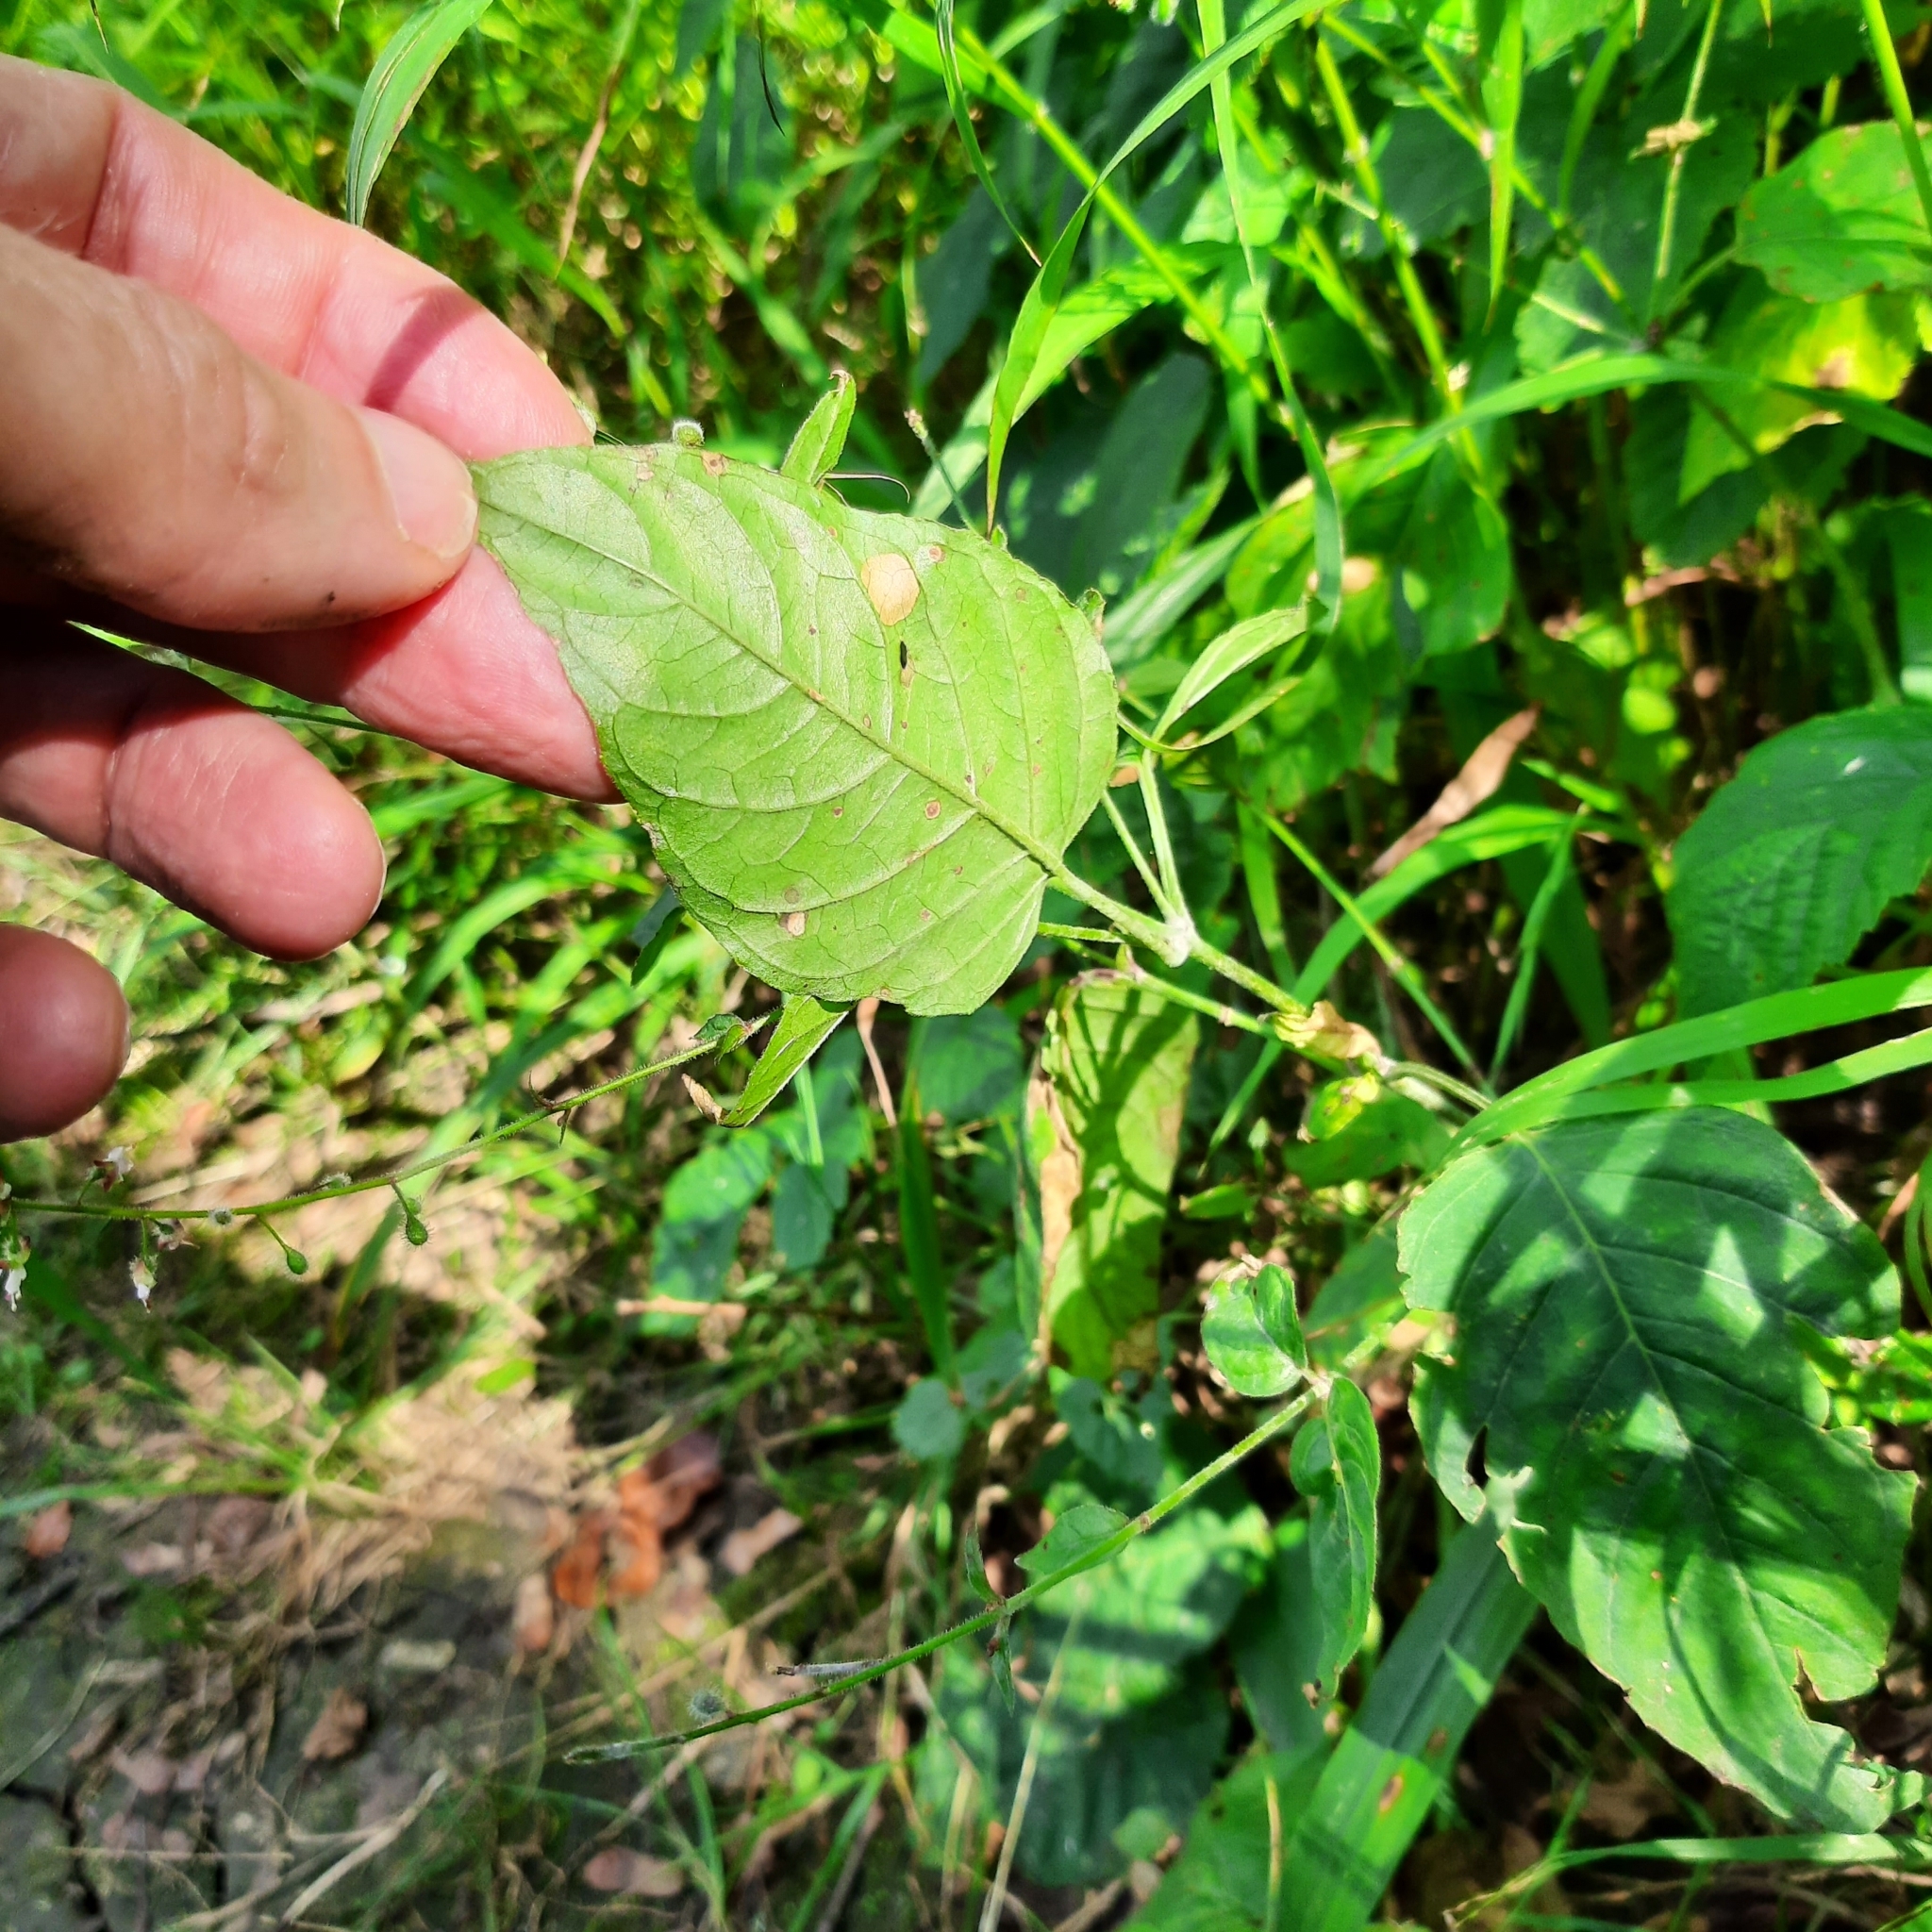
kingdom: Plantae
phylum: Tracheophyta
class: Magnoliopsida
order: Myrtales
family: Onagraceae
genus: Circaea
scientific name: Circaea lutetiana
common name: Enchanter's-nightshade
